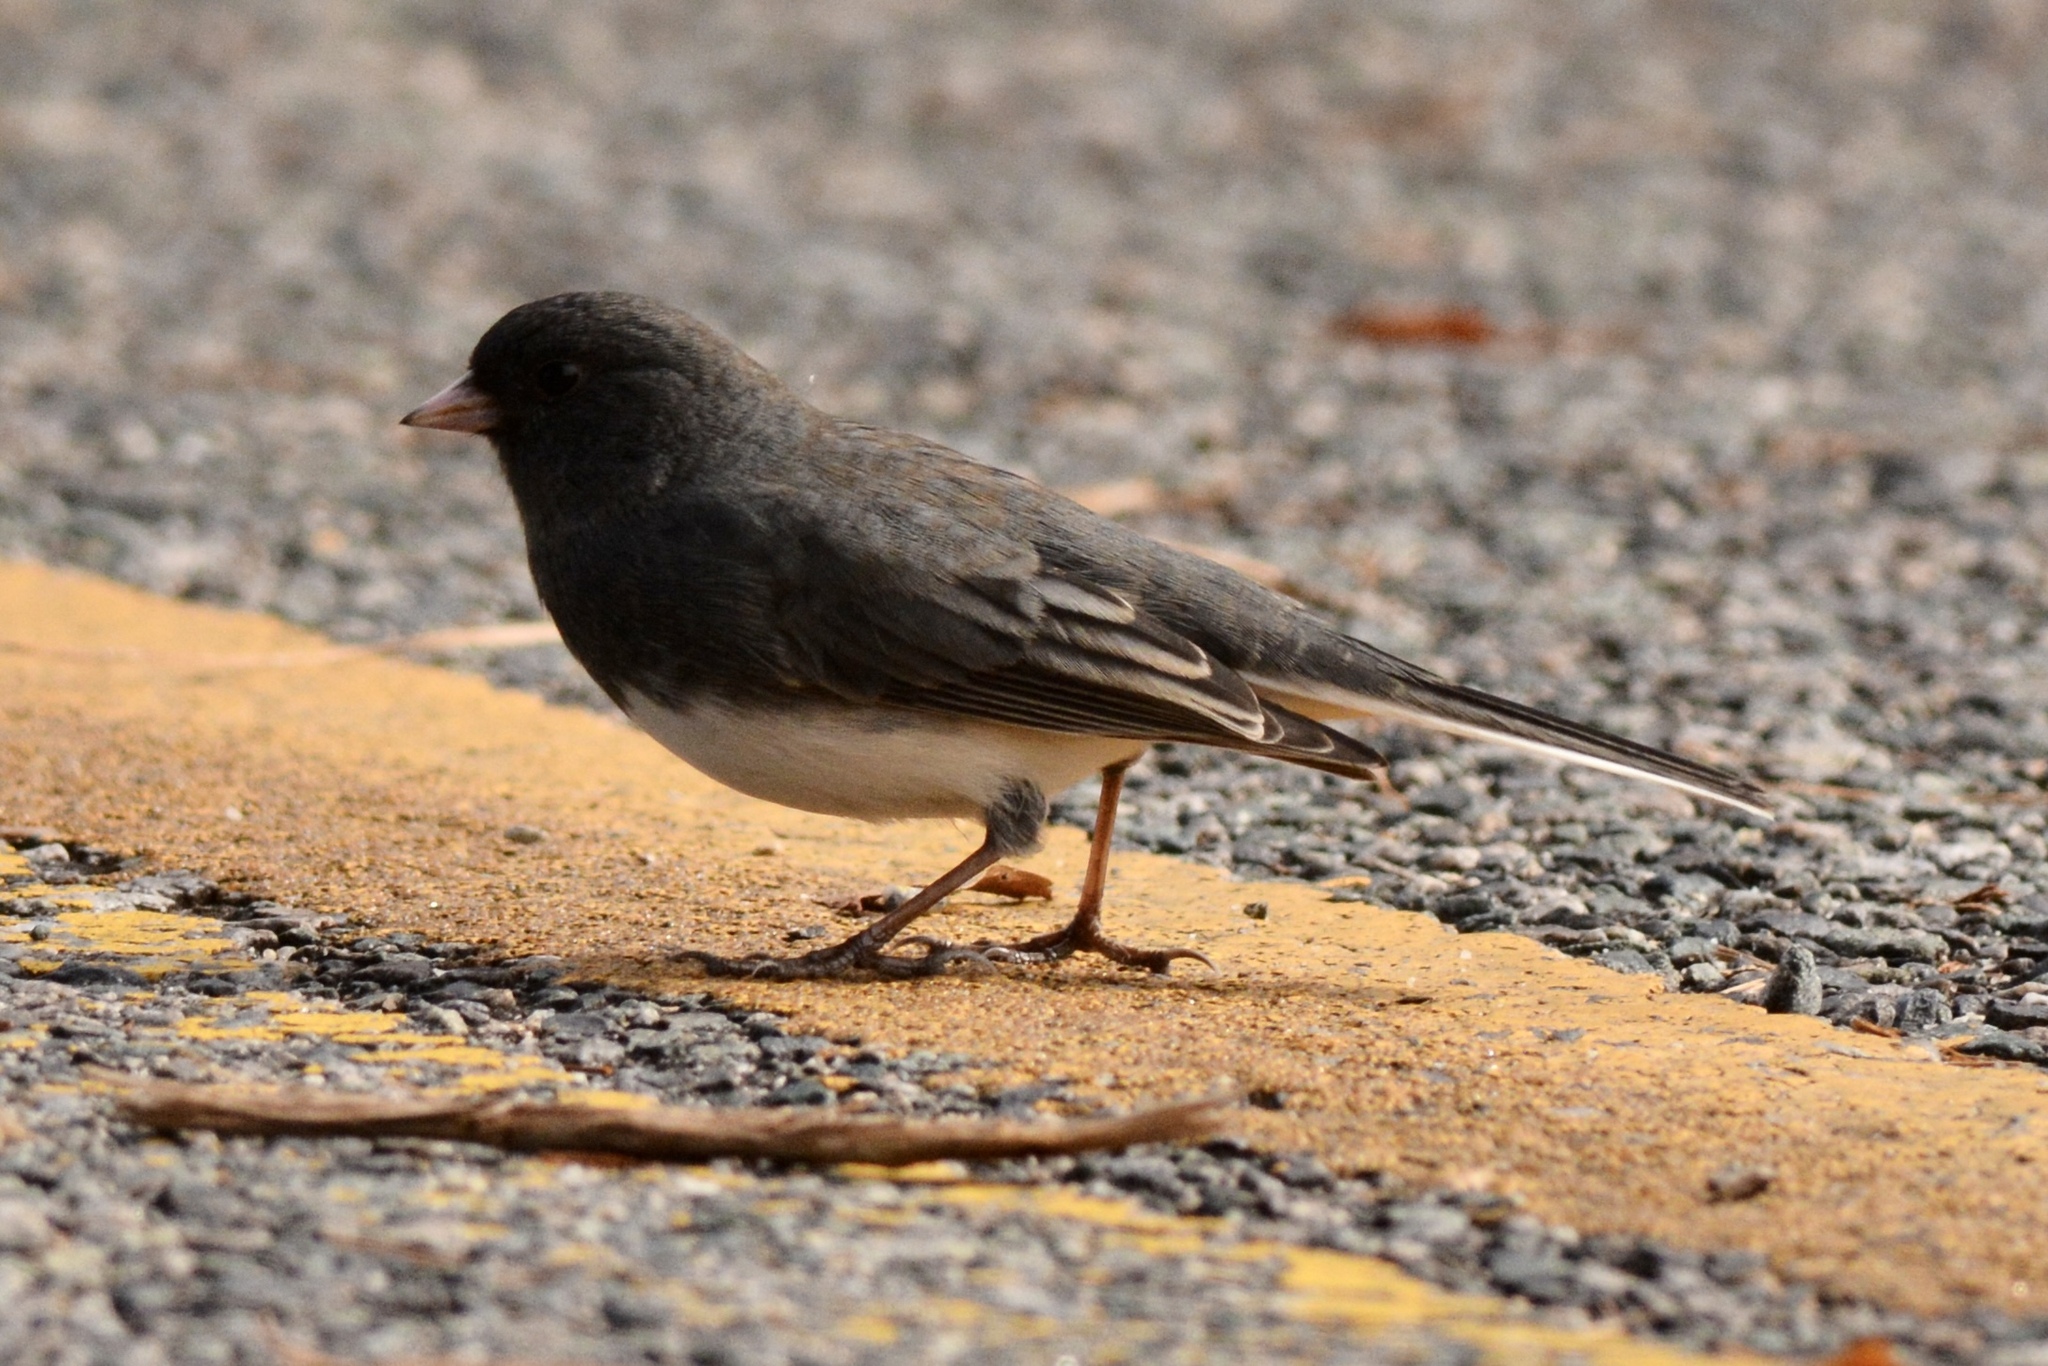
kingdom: Animalia
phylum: Chordata
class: Aves
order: Passeriformes
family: Passerellidae
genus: Junco
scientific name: Junco hyemalis
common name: Dark-eyed junco
